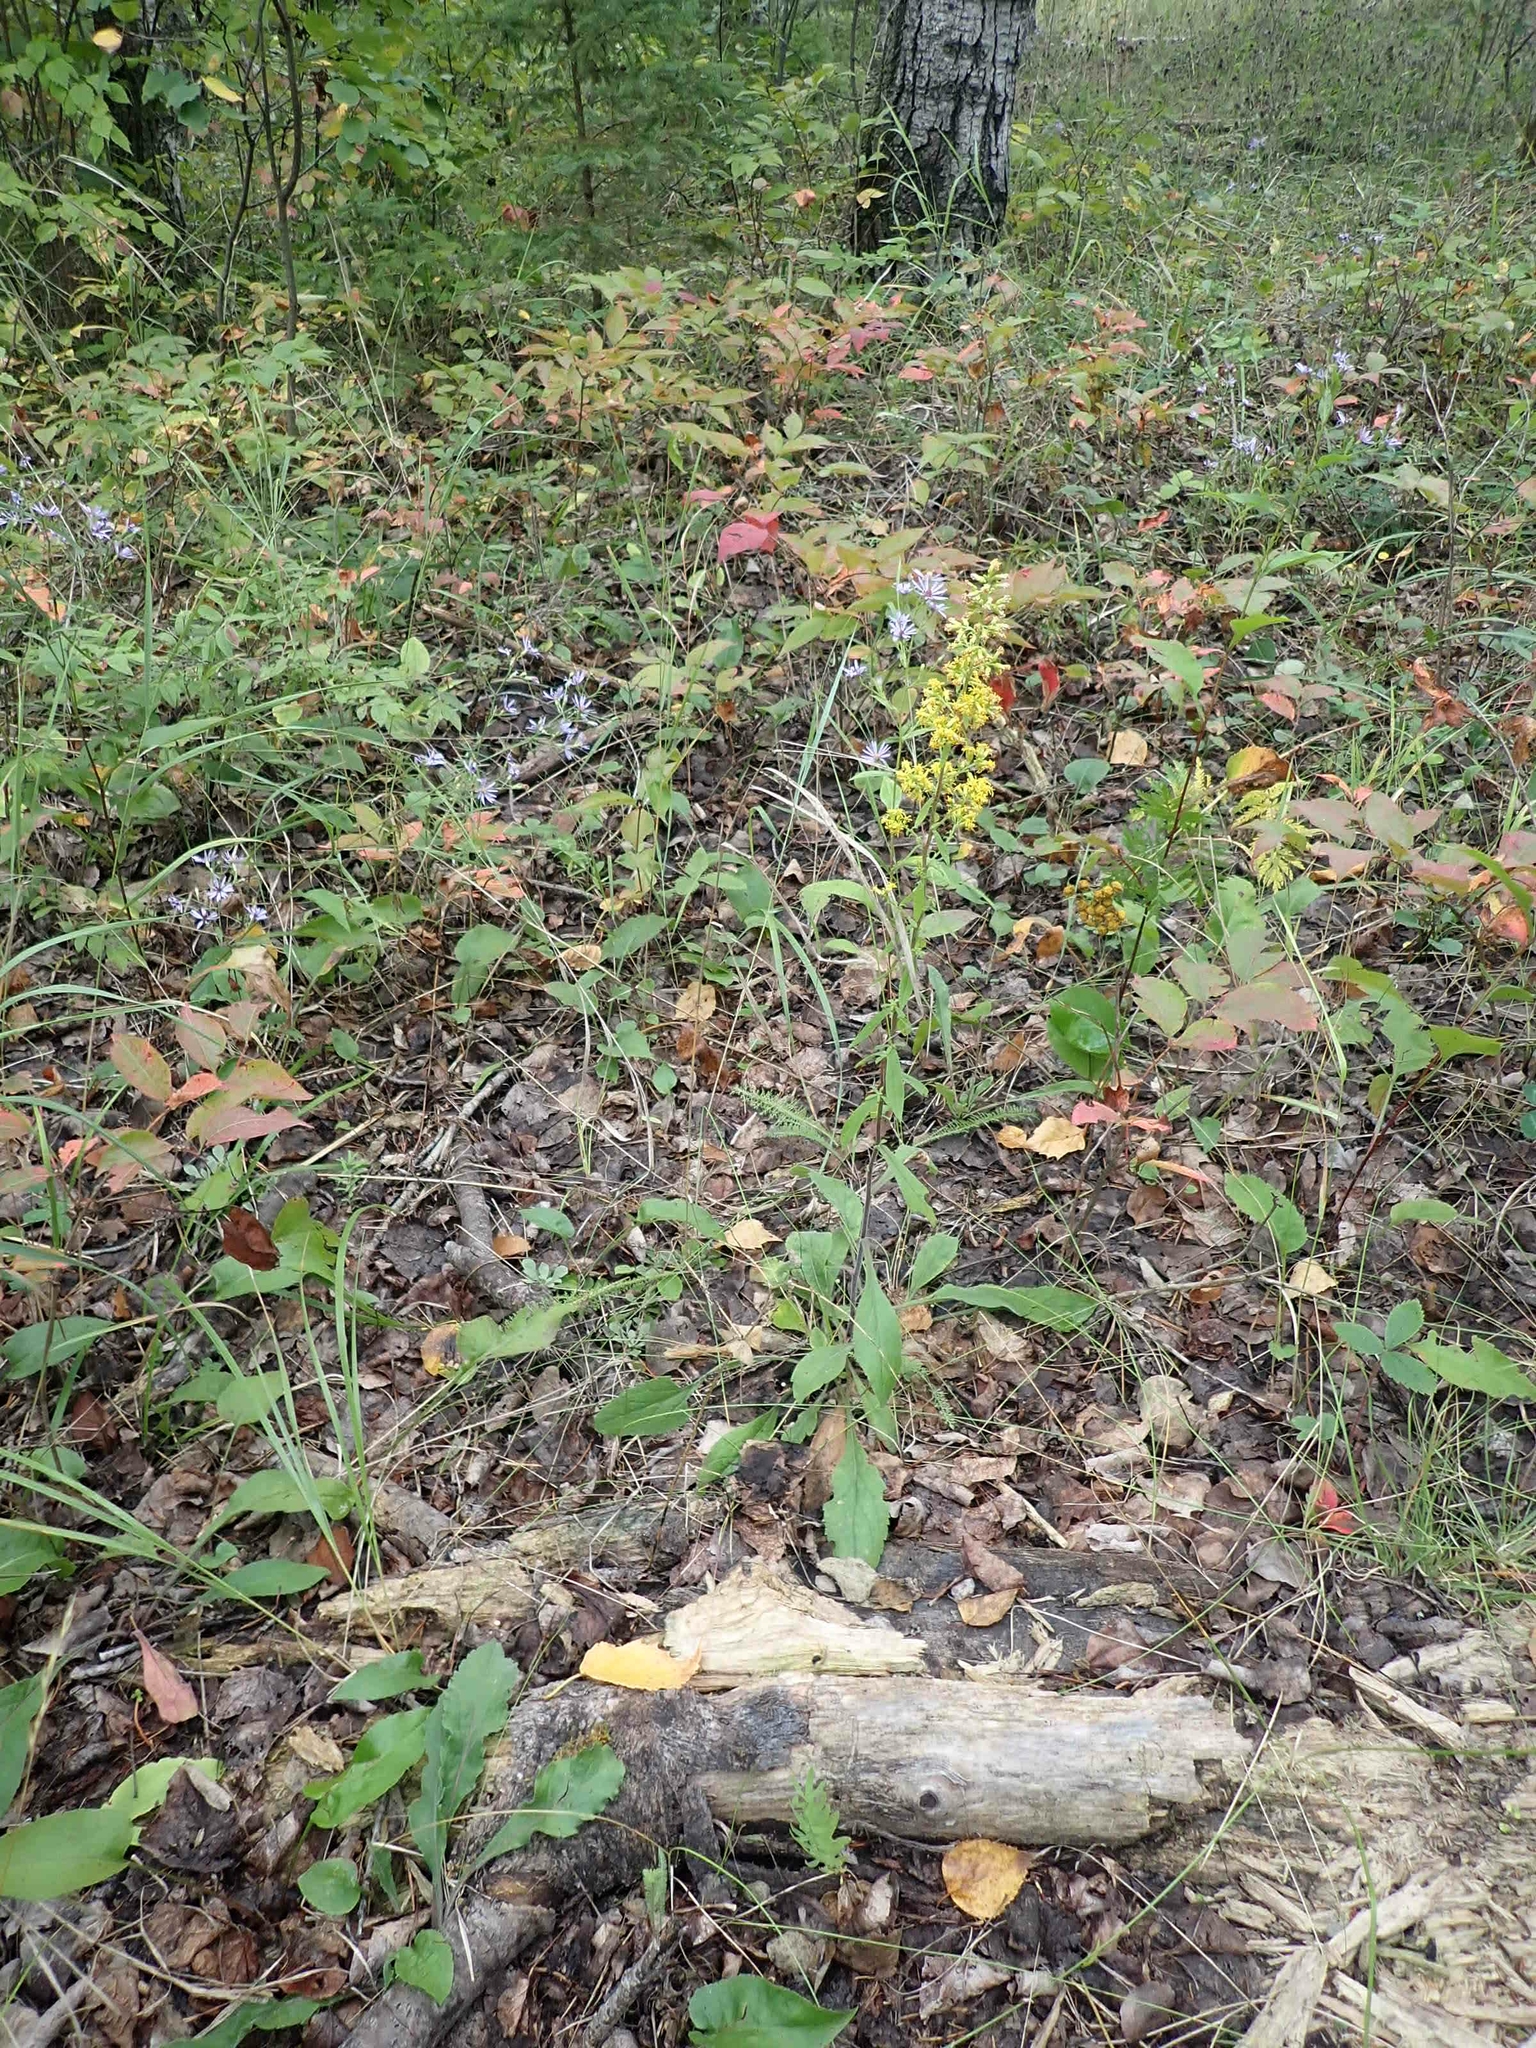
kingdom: Plantae
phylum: Tracheophyta
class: Magnoliopsida
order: Asterales
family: Asteraceae
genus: Solidago
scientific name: Solidago hispida
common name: Hairy goldenrod
